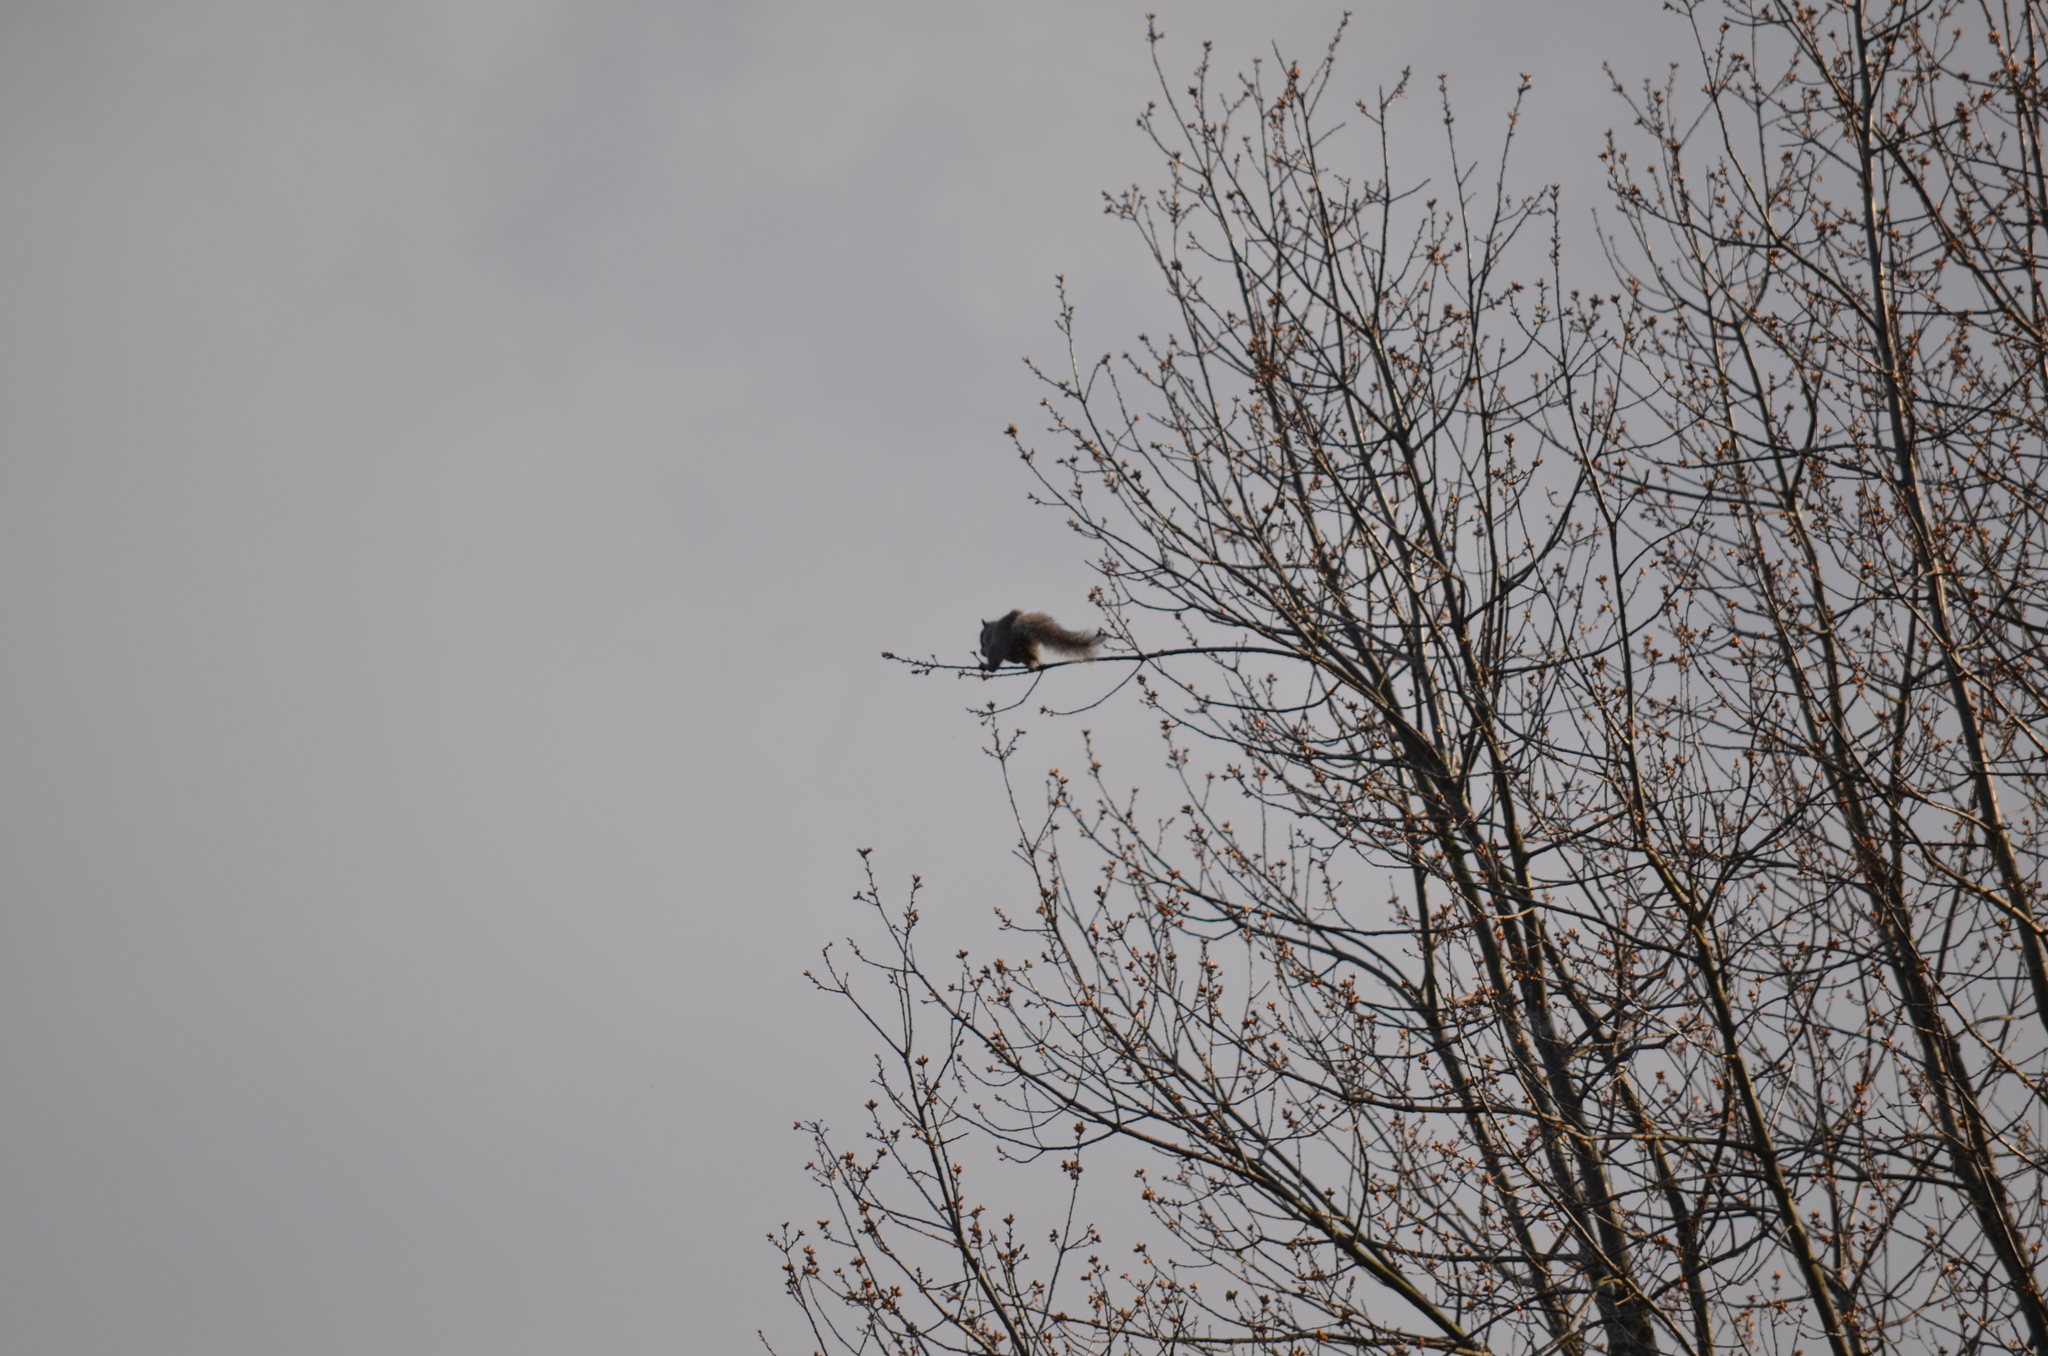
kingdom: Animalia
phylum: Chordata
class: Mammalia
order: Rodentia
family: Sciuridae
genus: Sciurus
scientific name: Sciurus carolinensis
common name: Eastern gray squirrel
